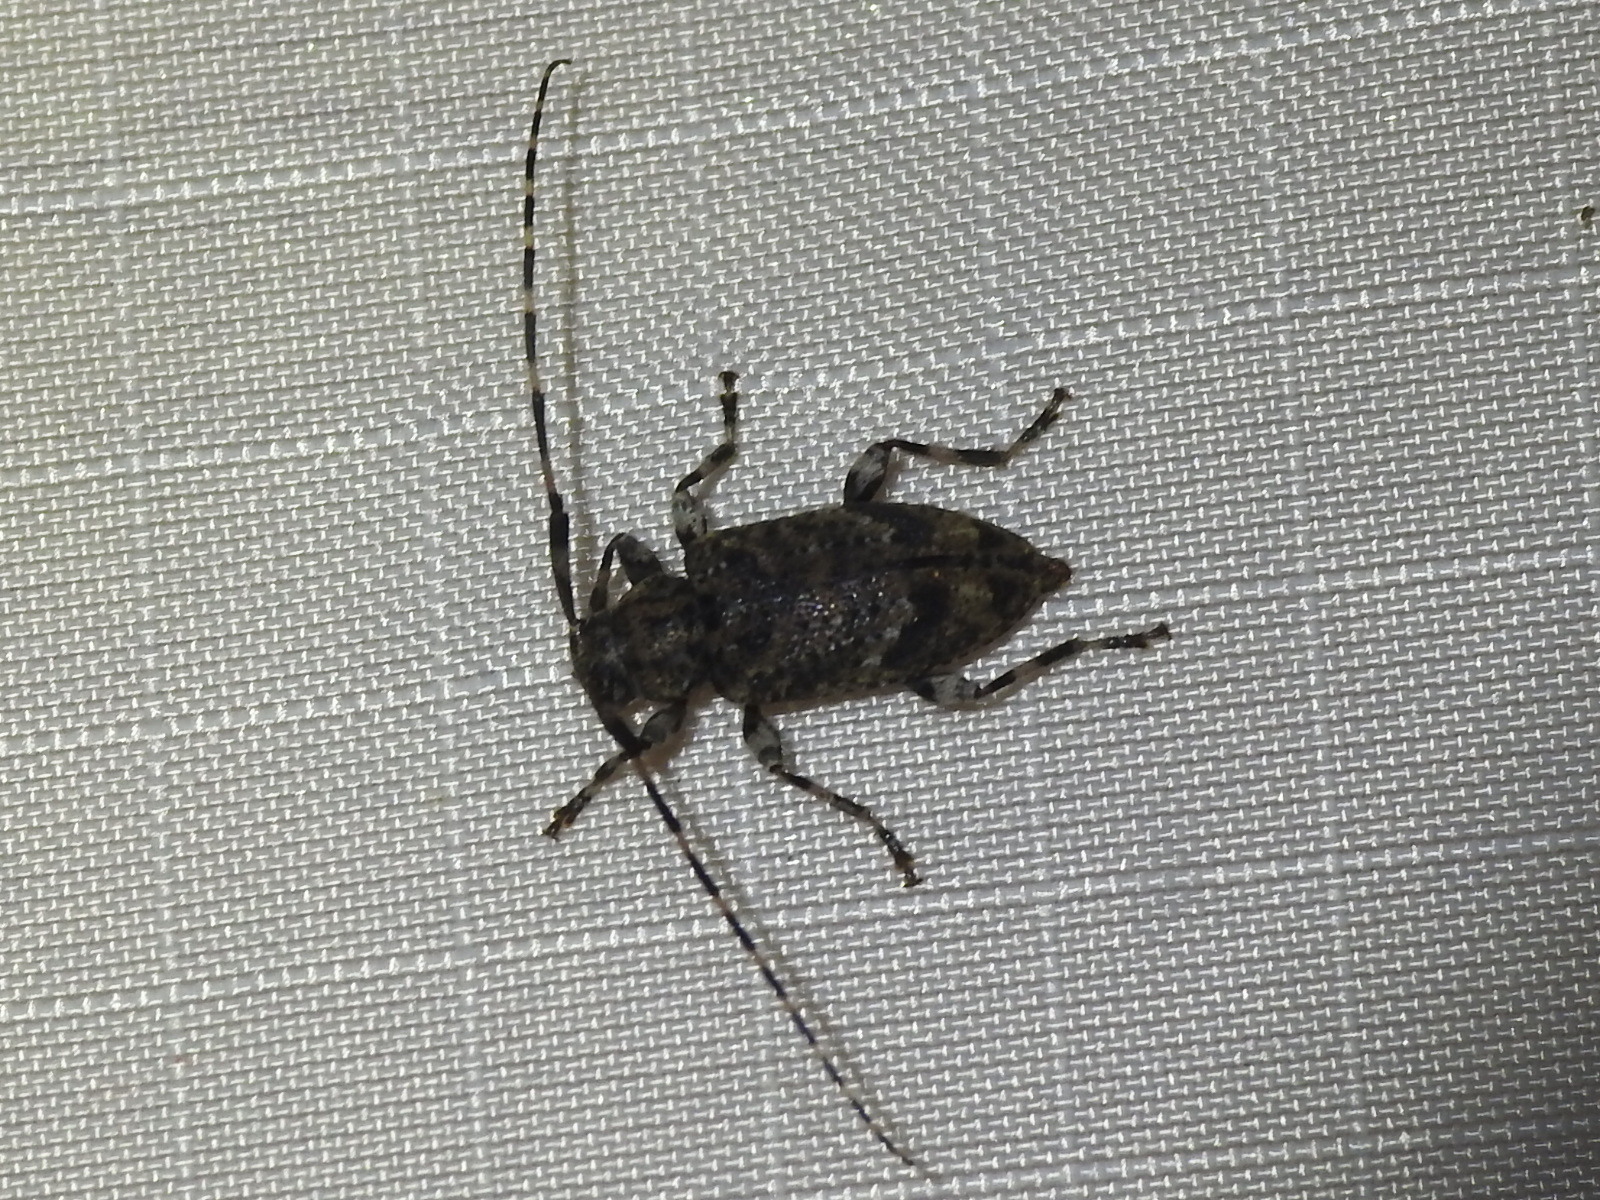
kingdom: Animalia
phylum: Arthropoda
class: Insecta
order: Coleoptera
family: Cerambycidae
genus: Astyleiopus
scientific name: Astyleiopus variegatus
